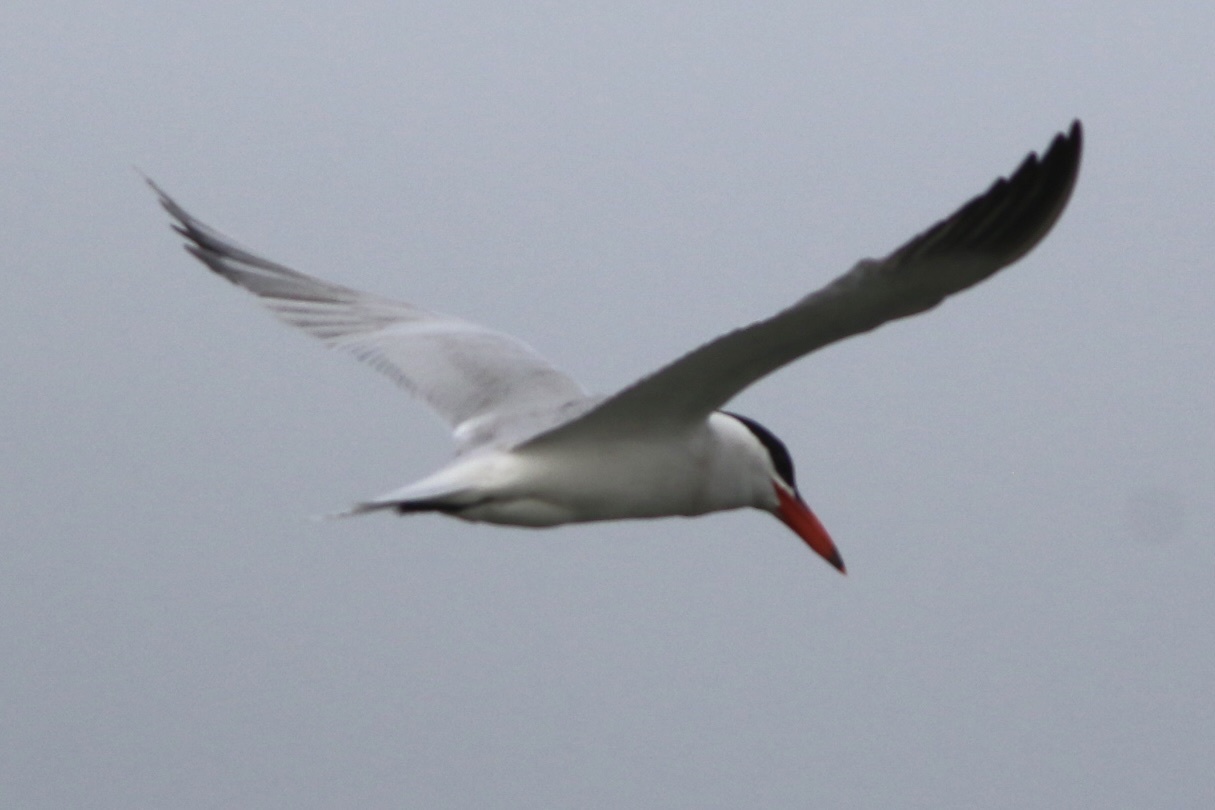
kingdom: Animalia
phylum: Chordata
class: Aves
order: Charadriiformes
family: Laridae
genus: Hydroprogne
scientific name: Hydroprogne caspia
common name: Caspian tern
